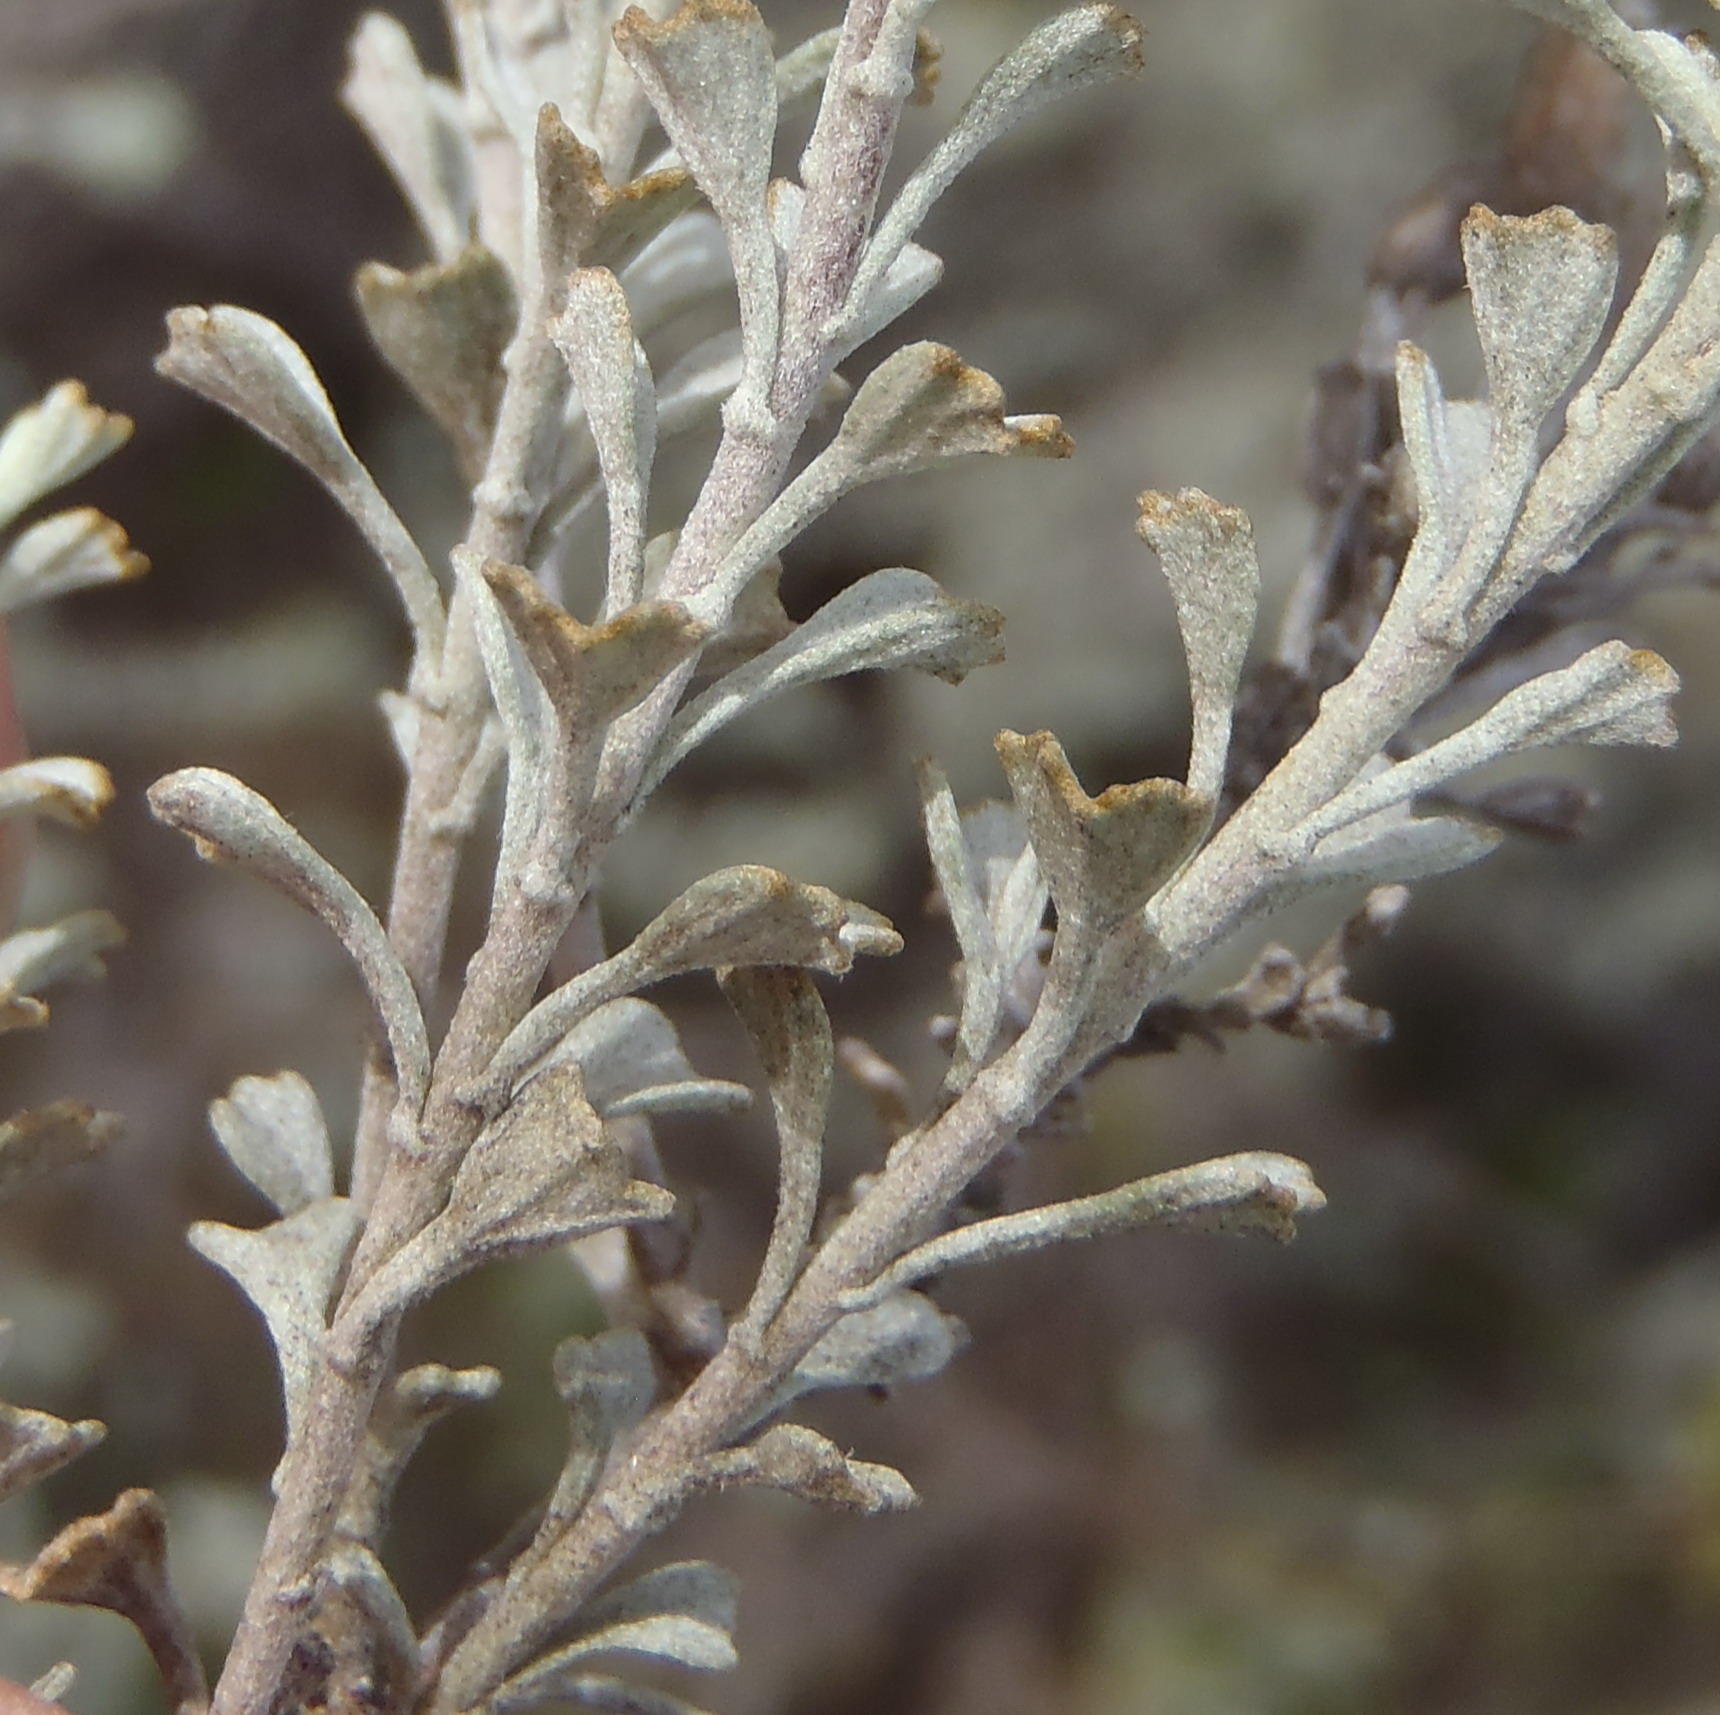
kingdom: Plantae
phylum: Tracheophyta
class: Magnoliopsida
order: Asterales
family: Asteraceae
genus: Pentzia
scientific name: Pentzia dentata
